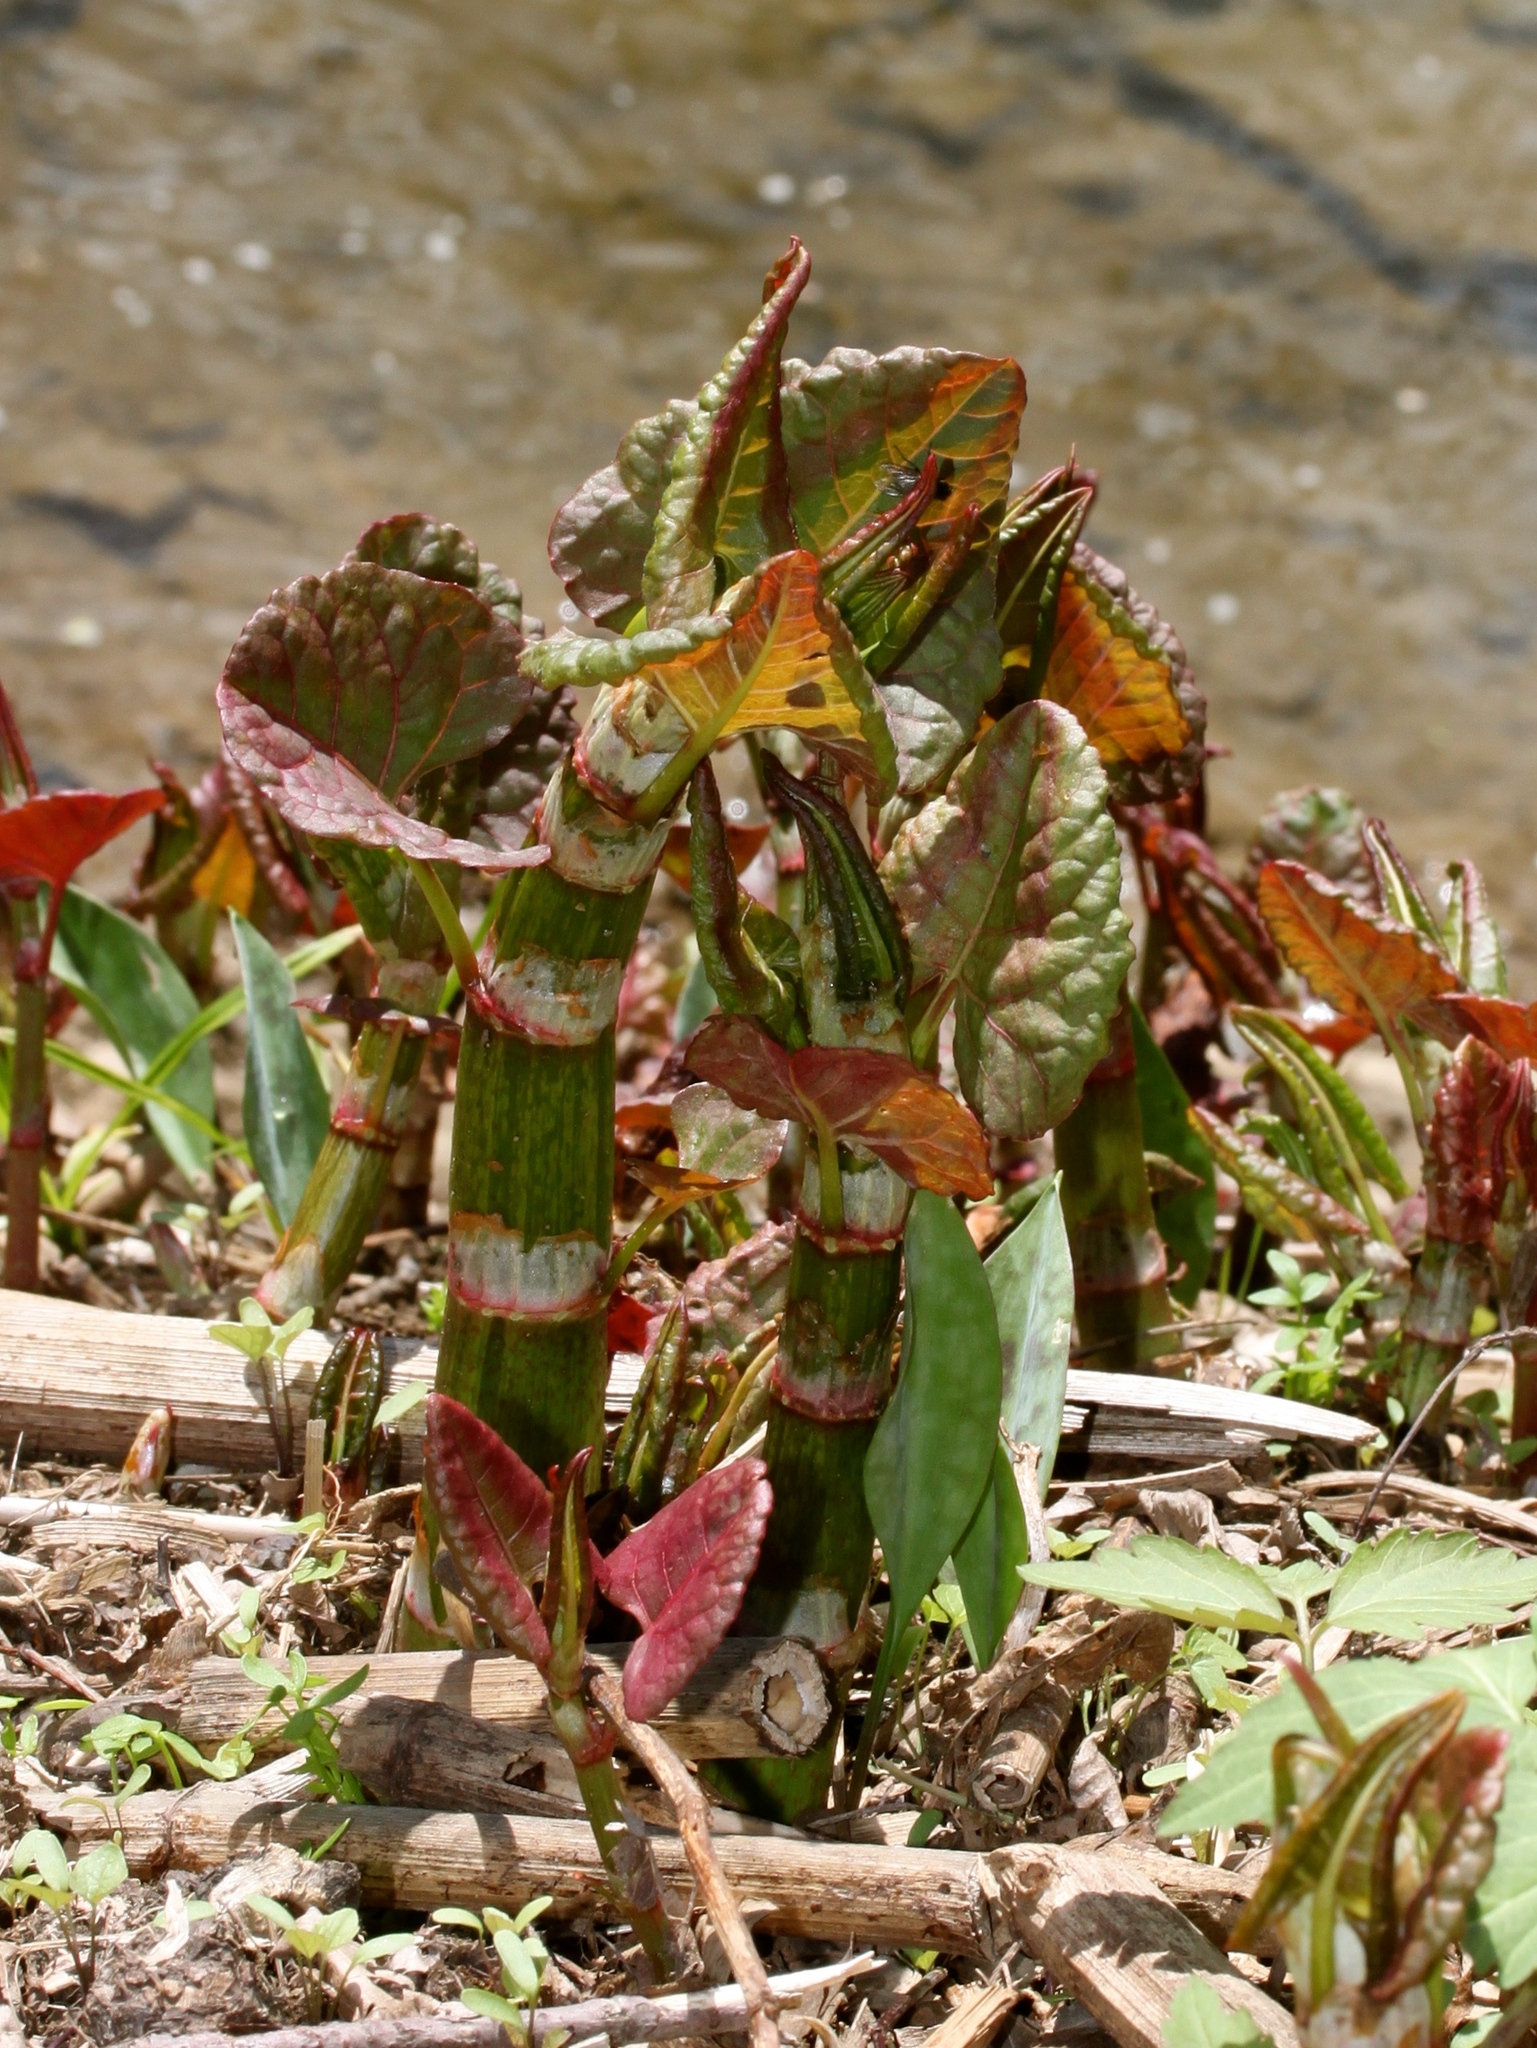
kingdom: Plantae
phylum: Tracheophyta
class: Magnoliopsida
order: Caryophyllales
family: Polygonaceae
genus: Reynoutria
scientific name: Reynoutria japonica
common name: Japanese knotweed
